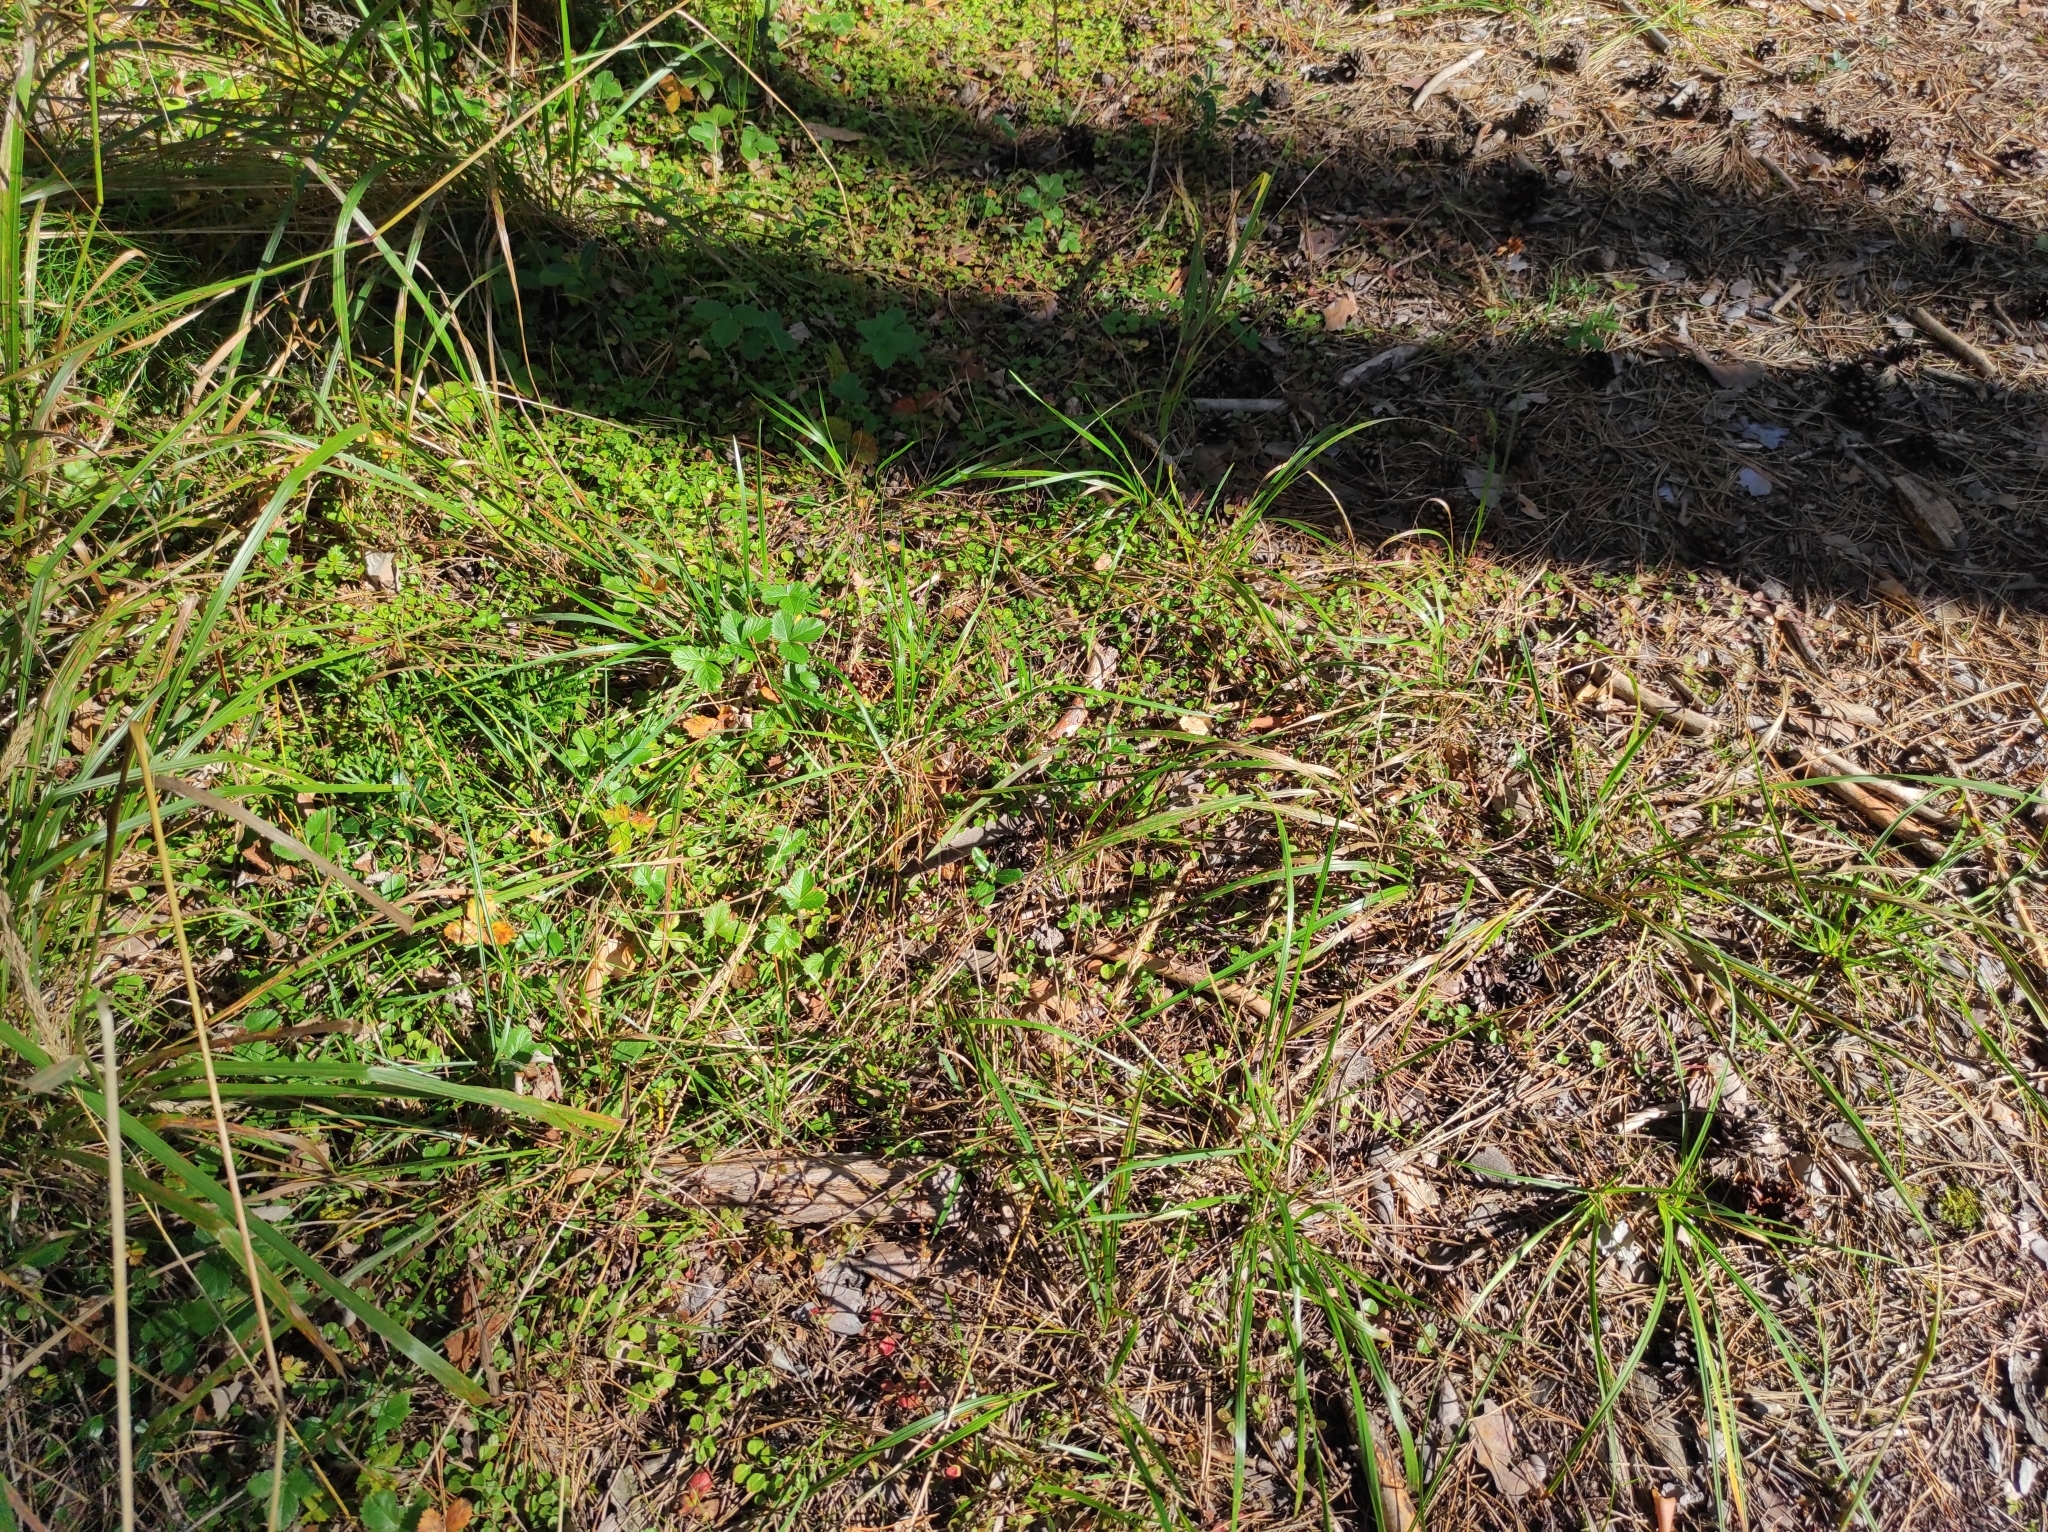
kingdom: Plantae
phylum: Tracheophyta
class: Magnoliopsida
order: Dipsacales
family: Caprifoliaceae
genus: Linnaea
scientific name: Linnaea borealis
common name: Twinflower
